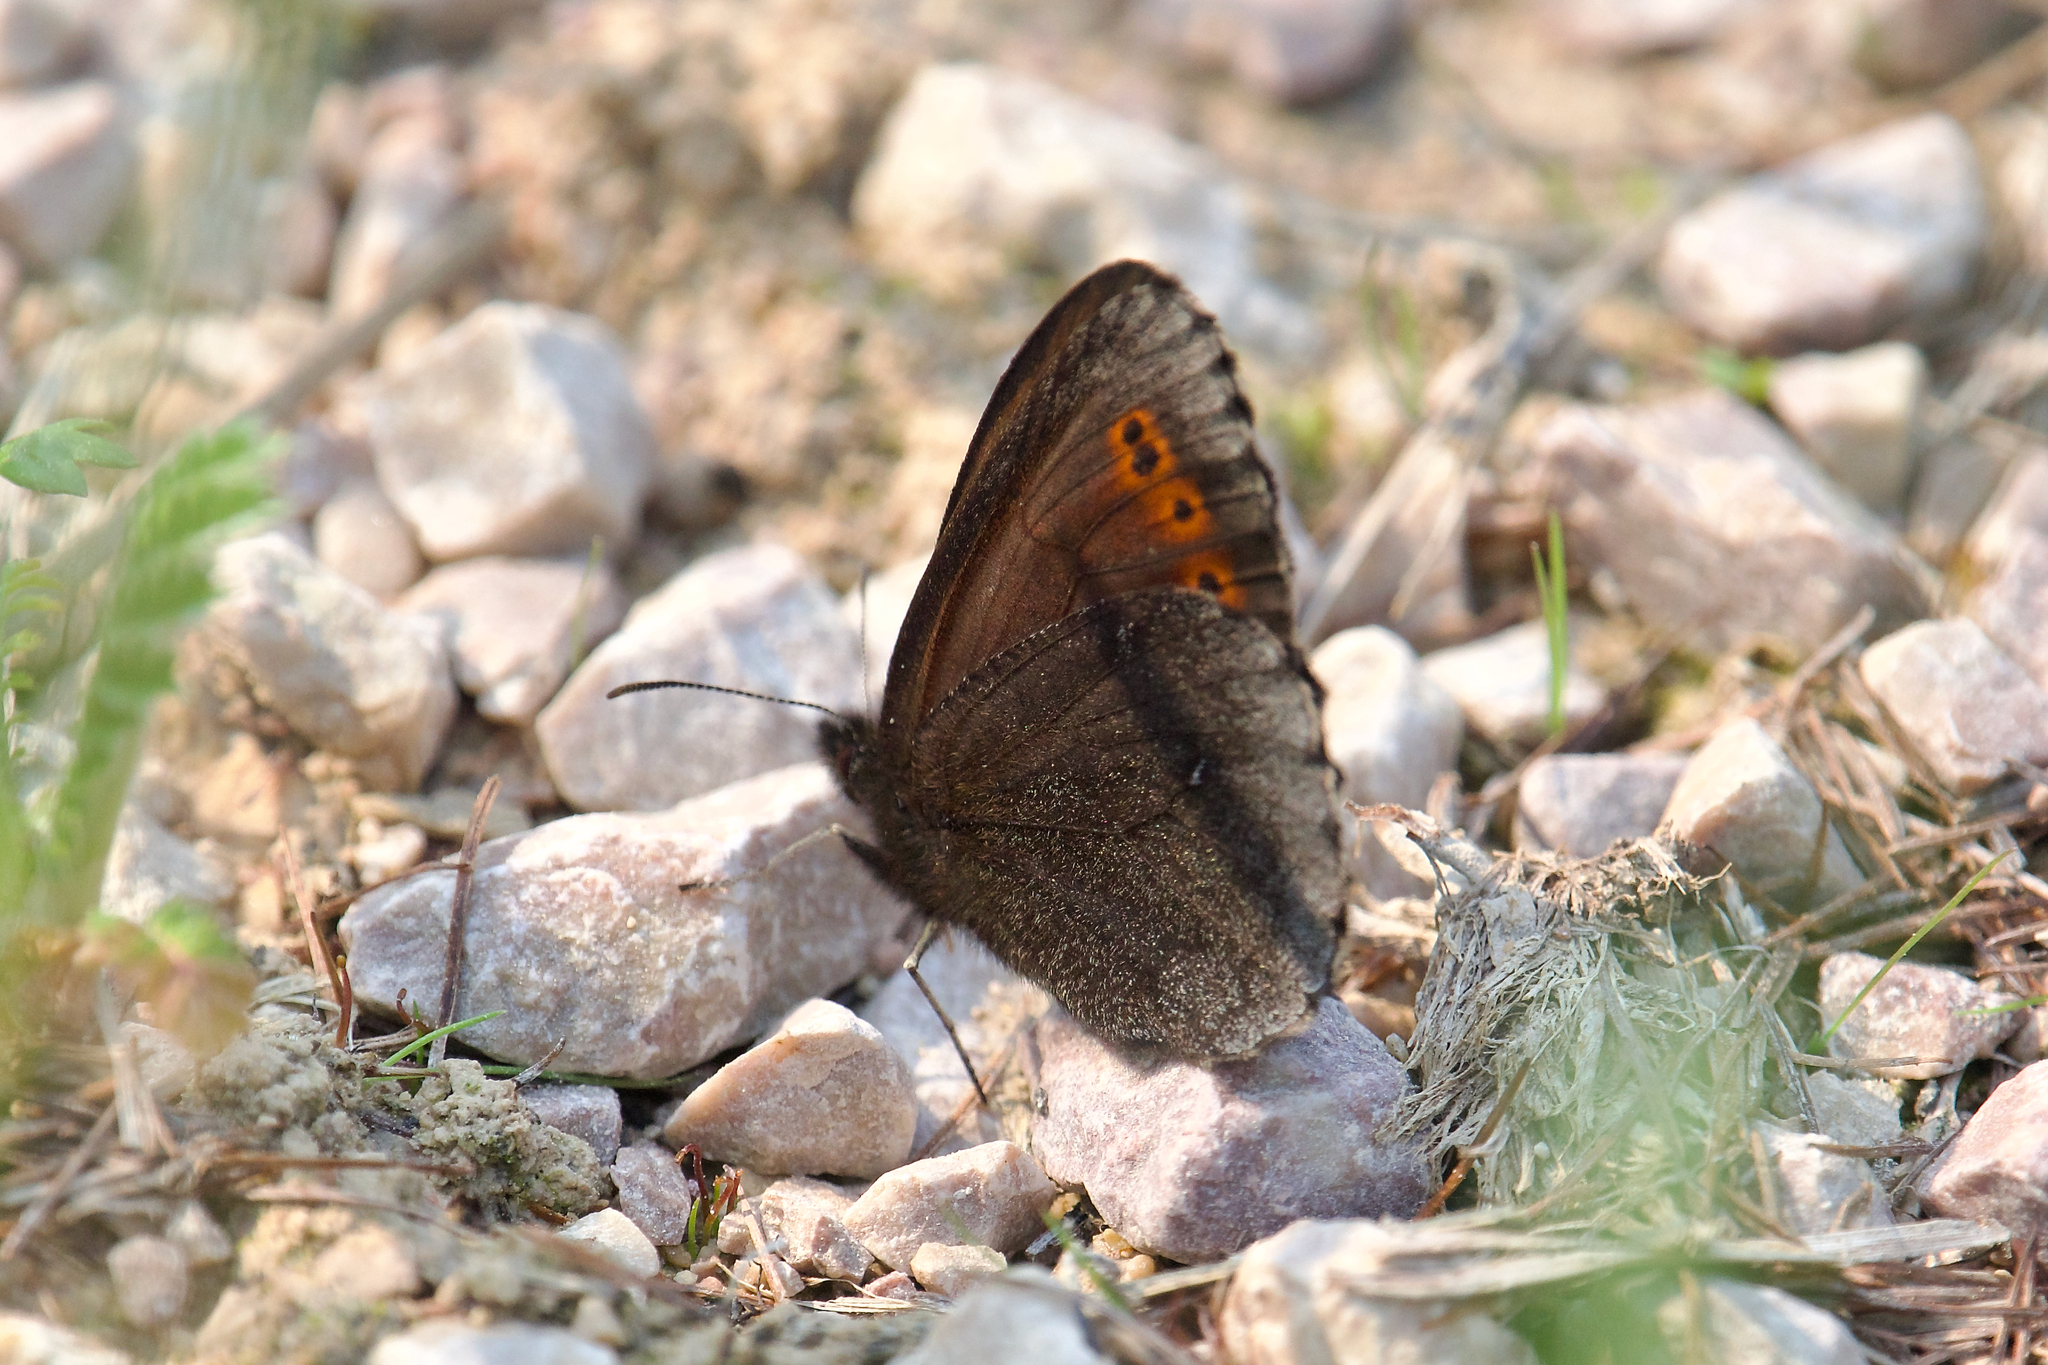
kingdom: Animalia
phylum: Arthropoda
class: Insecta
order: Lepidoptera
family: Nymphalidae
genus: Erebia
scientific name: Erebia disa
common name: Arctic ringlet
